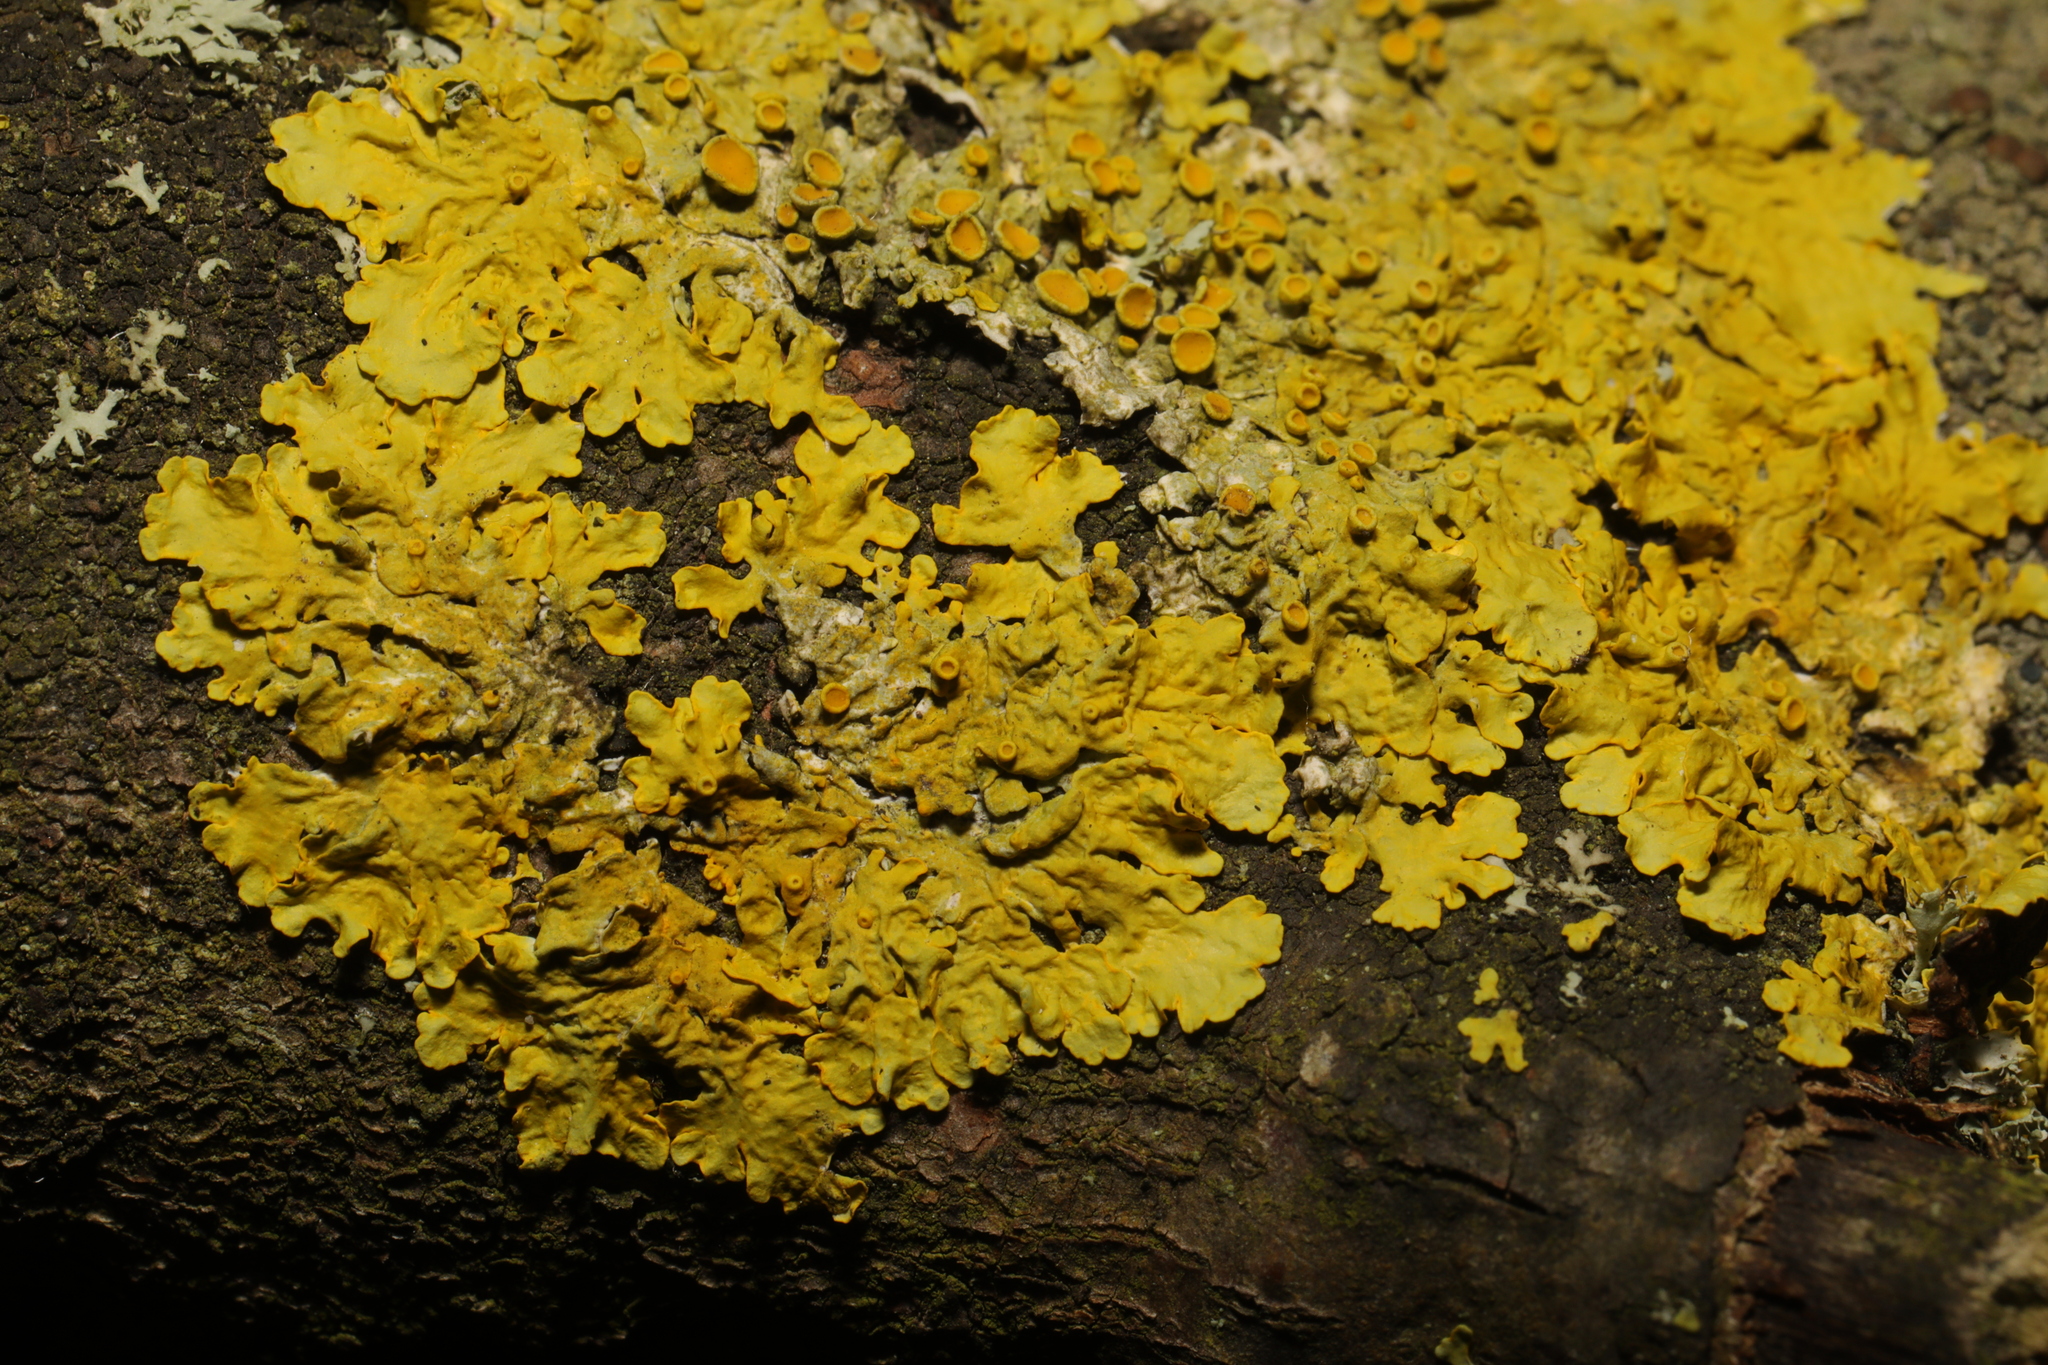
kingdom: Fungi
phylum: Ascomycota
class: Lecanoromycetes
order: Teloschistales
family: Teloschistaceae
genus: Xanthoria
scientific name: Xanthoria parietina
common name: Common orange lichen
